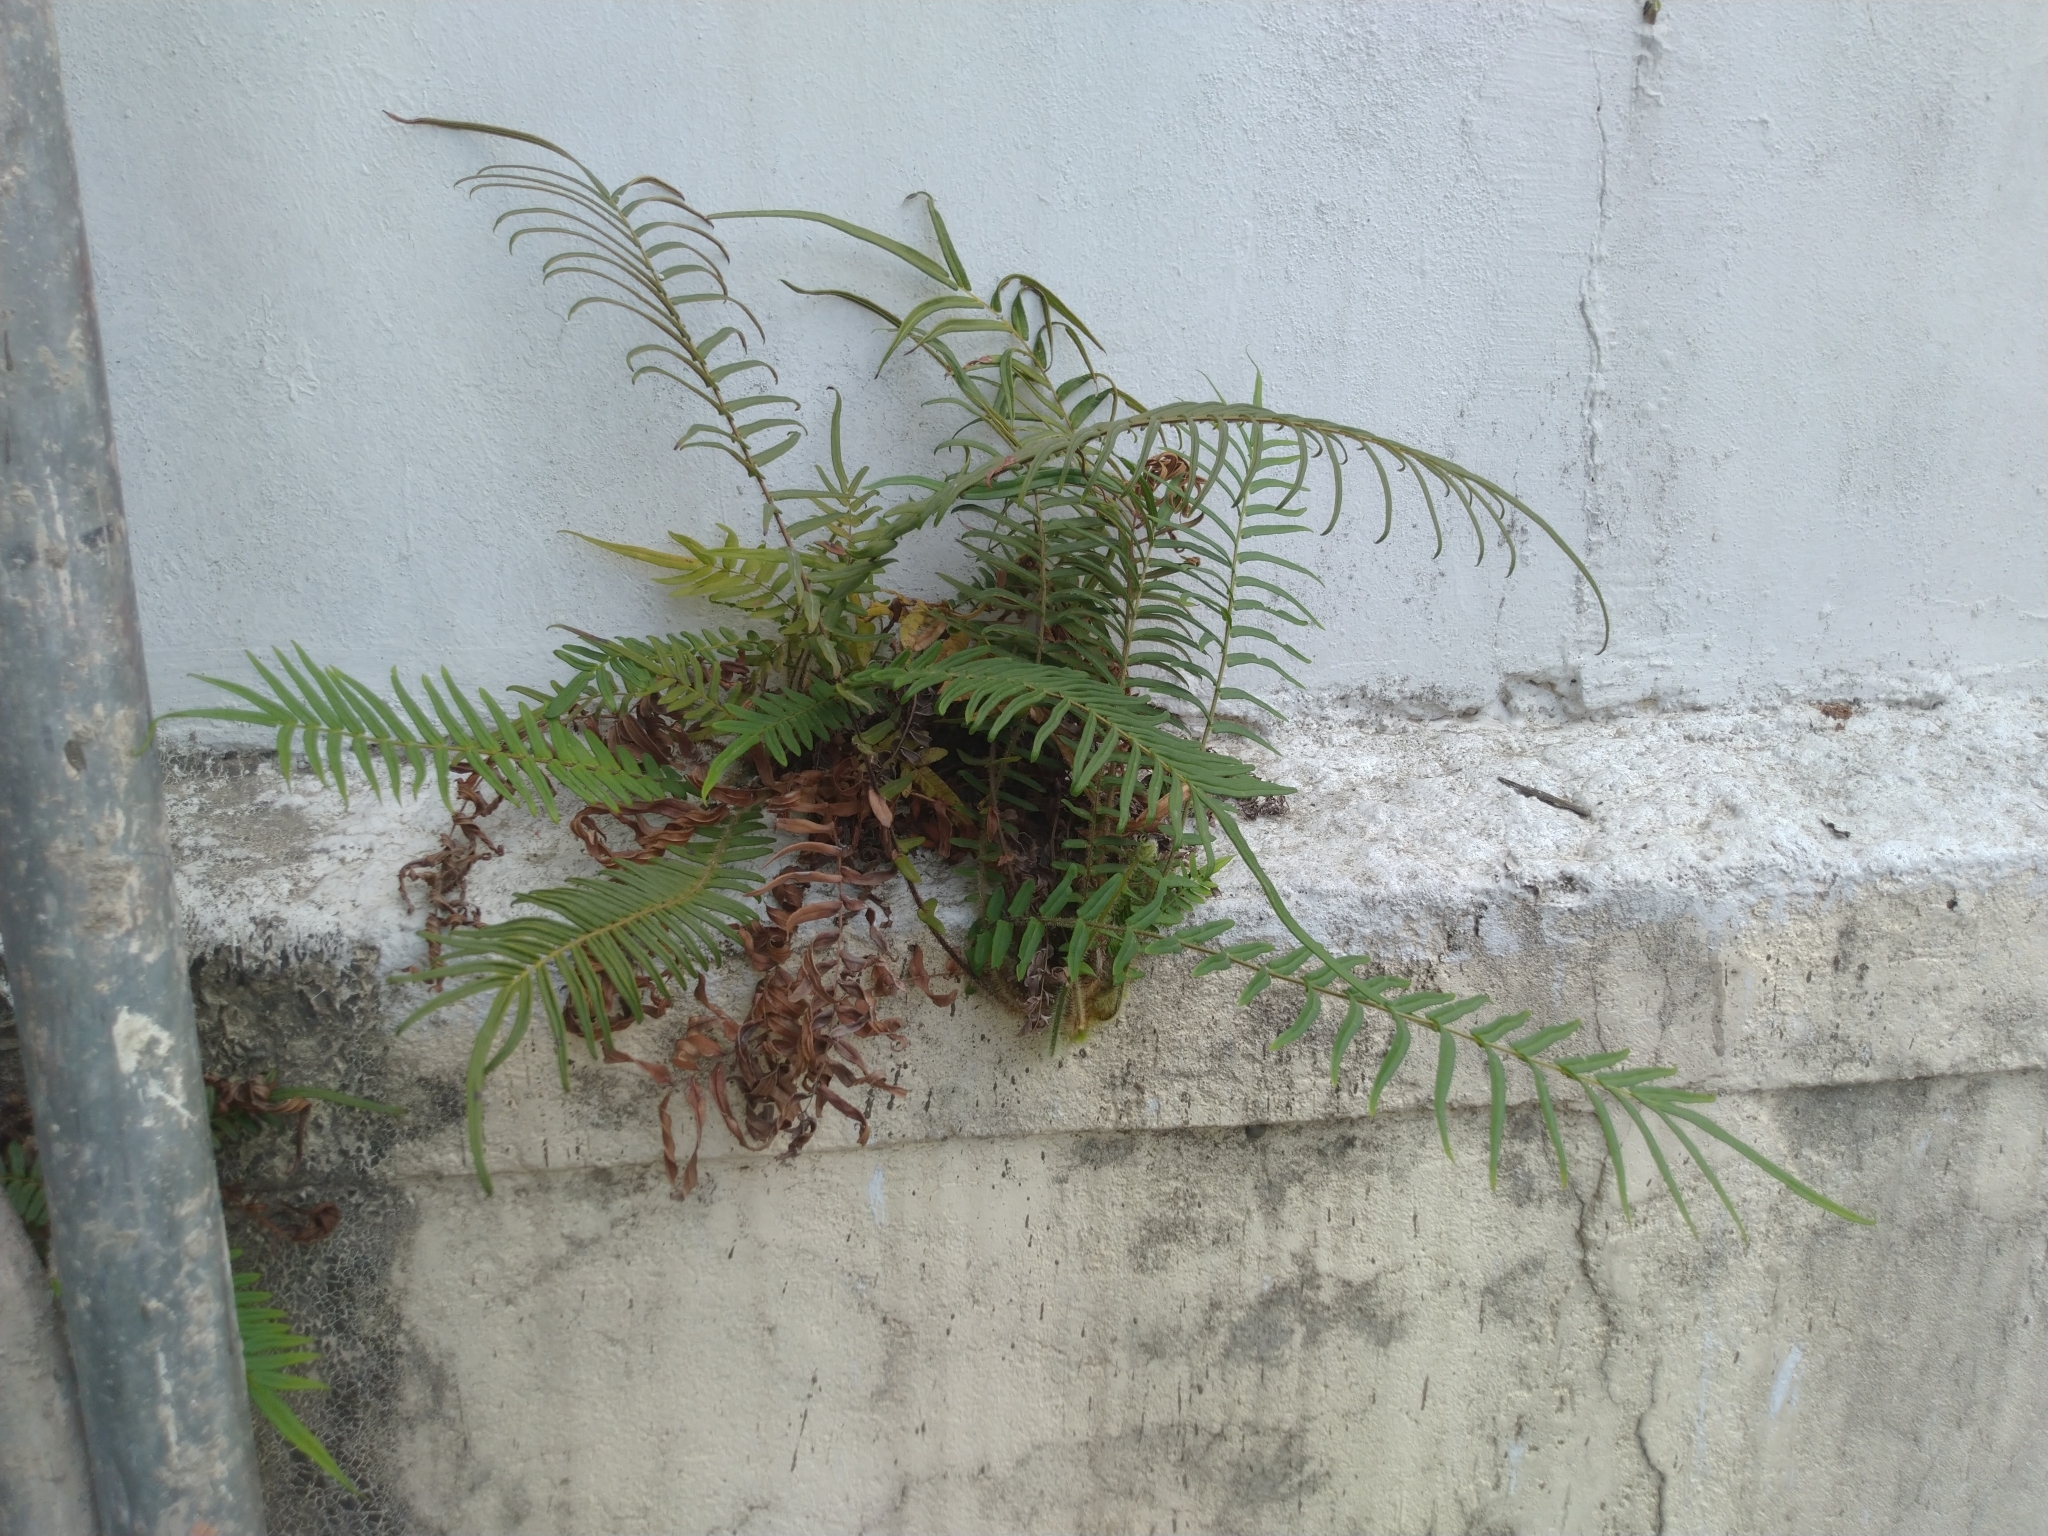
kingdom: Plantae
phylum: Tracheophyta
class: Polypodiopsida
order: Polypodiales
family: Pteridaceae
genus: Pteris
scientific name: Pteris vittata
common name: Ladder brake
